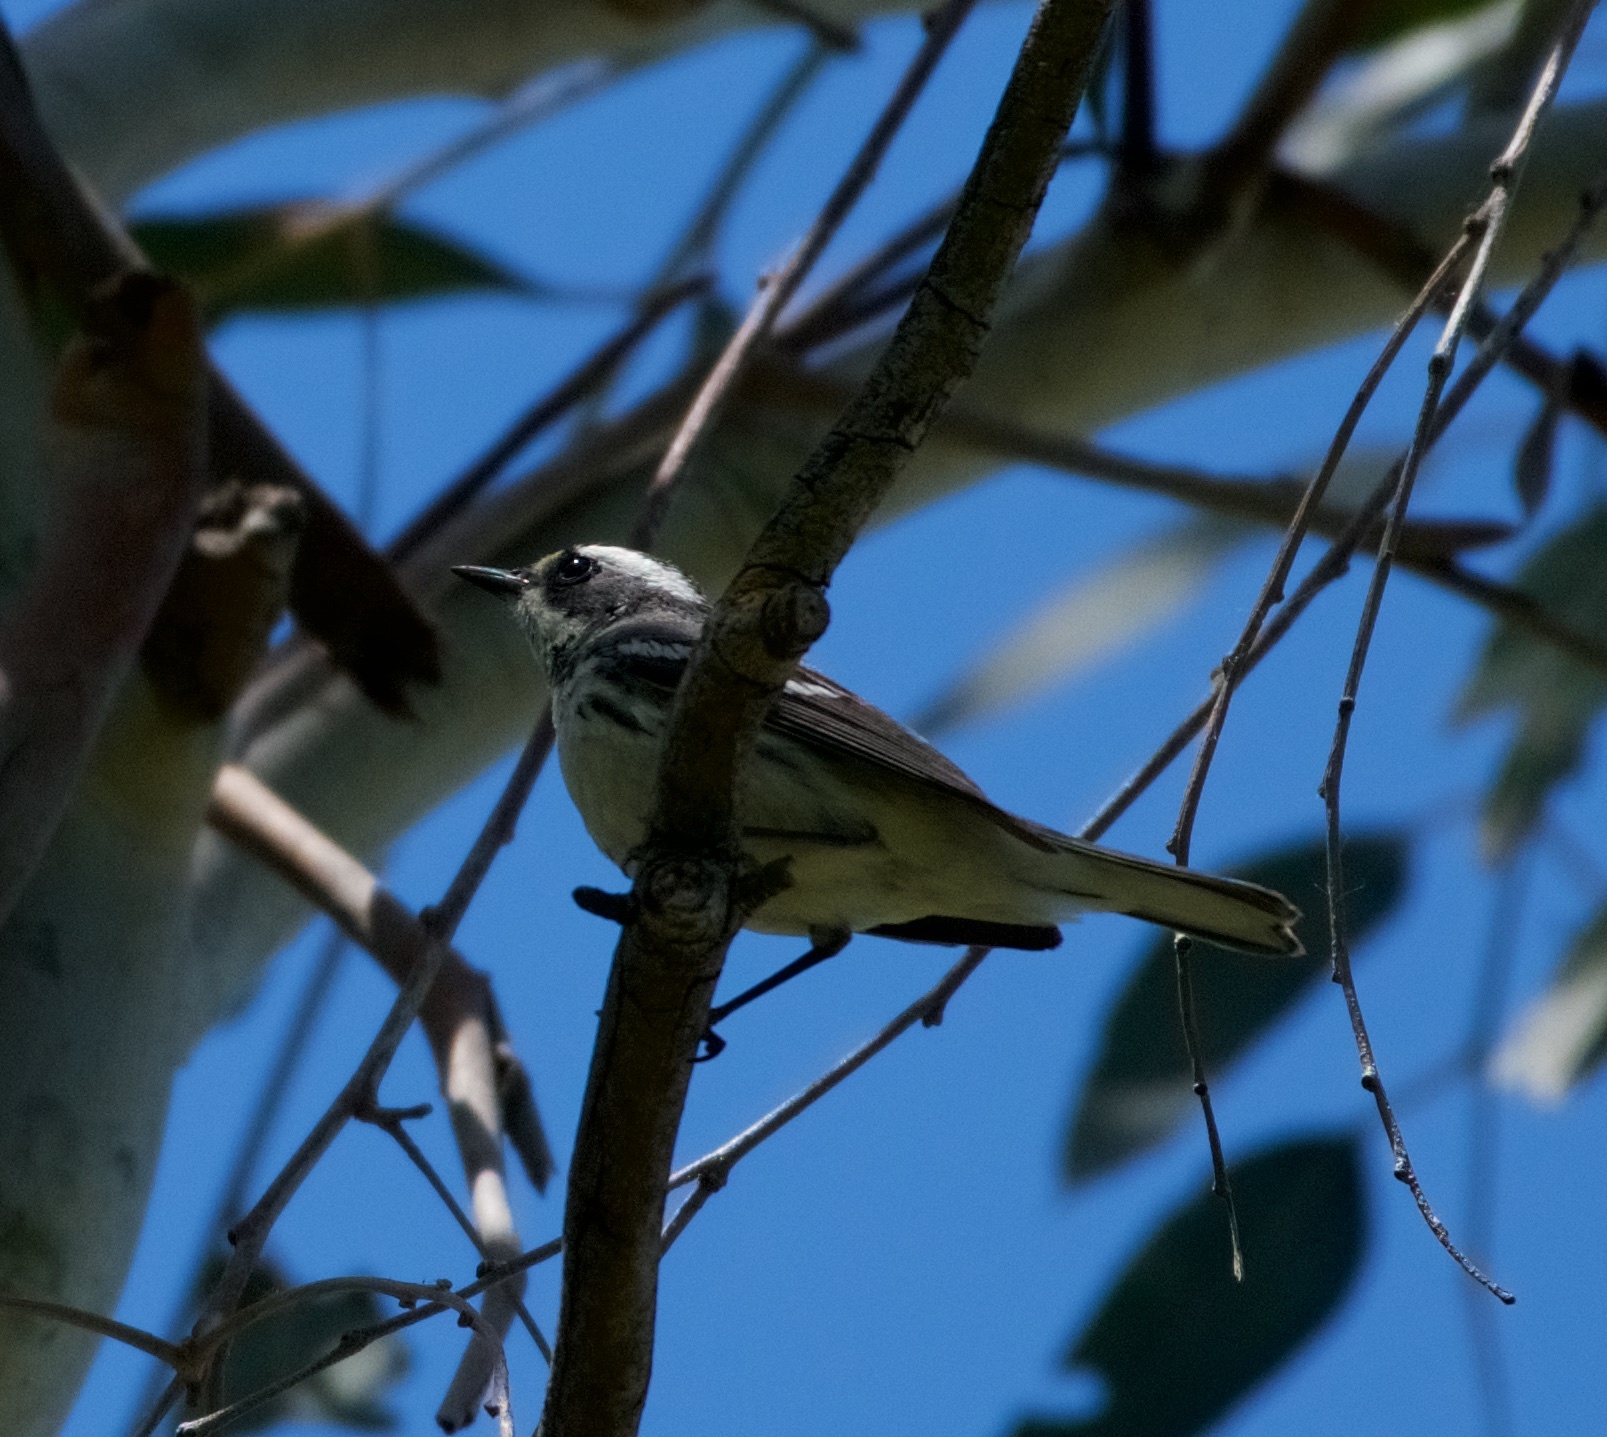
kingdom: Animalia
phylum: Chordata
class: Aves
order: Passeriformes
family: Parulidae
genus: Setophaga
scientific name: Setophaga nigrescens
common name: Black-throated gray warbler
